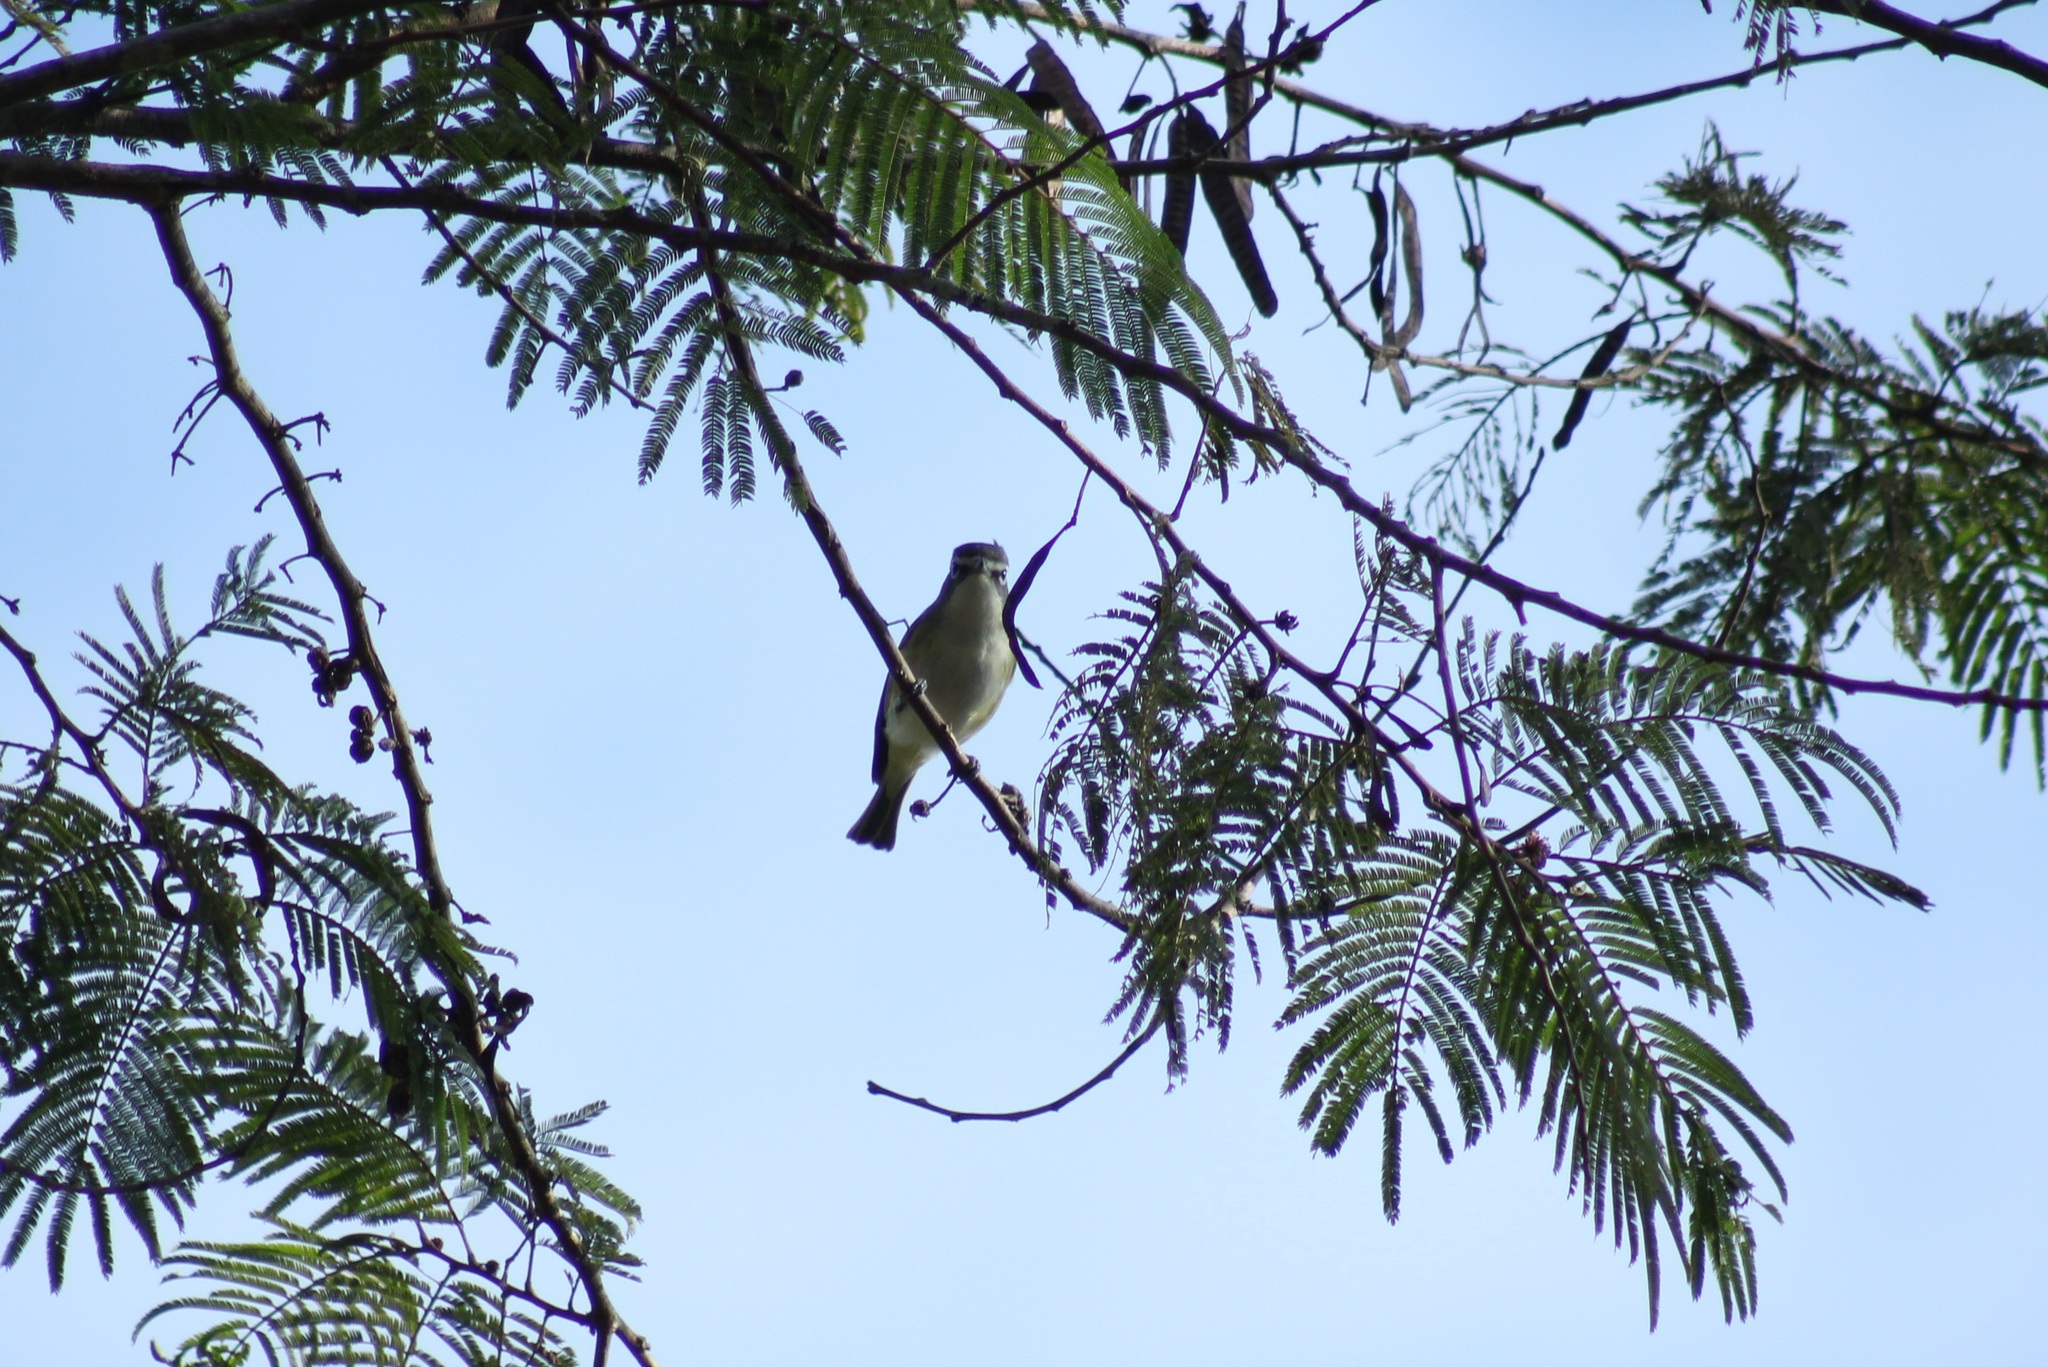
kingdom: Animalia
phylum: Chordata
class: Aves
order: Passeriformes
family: Vireonidae
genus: Vireo
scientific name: Vireo solitarius
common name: Blue-headed vireo
